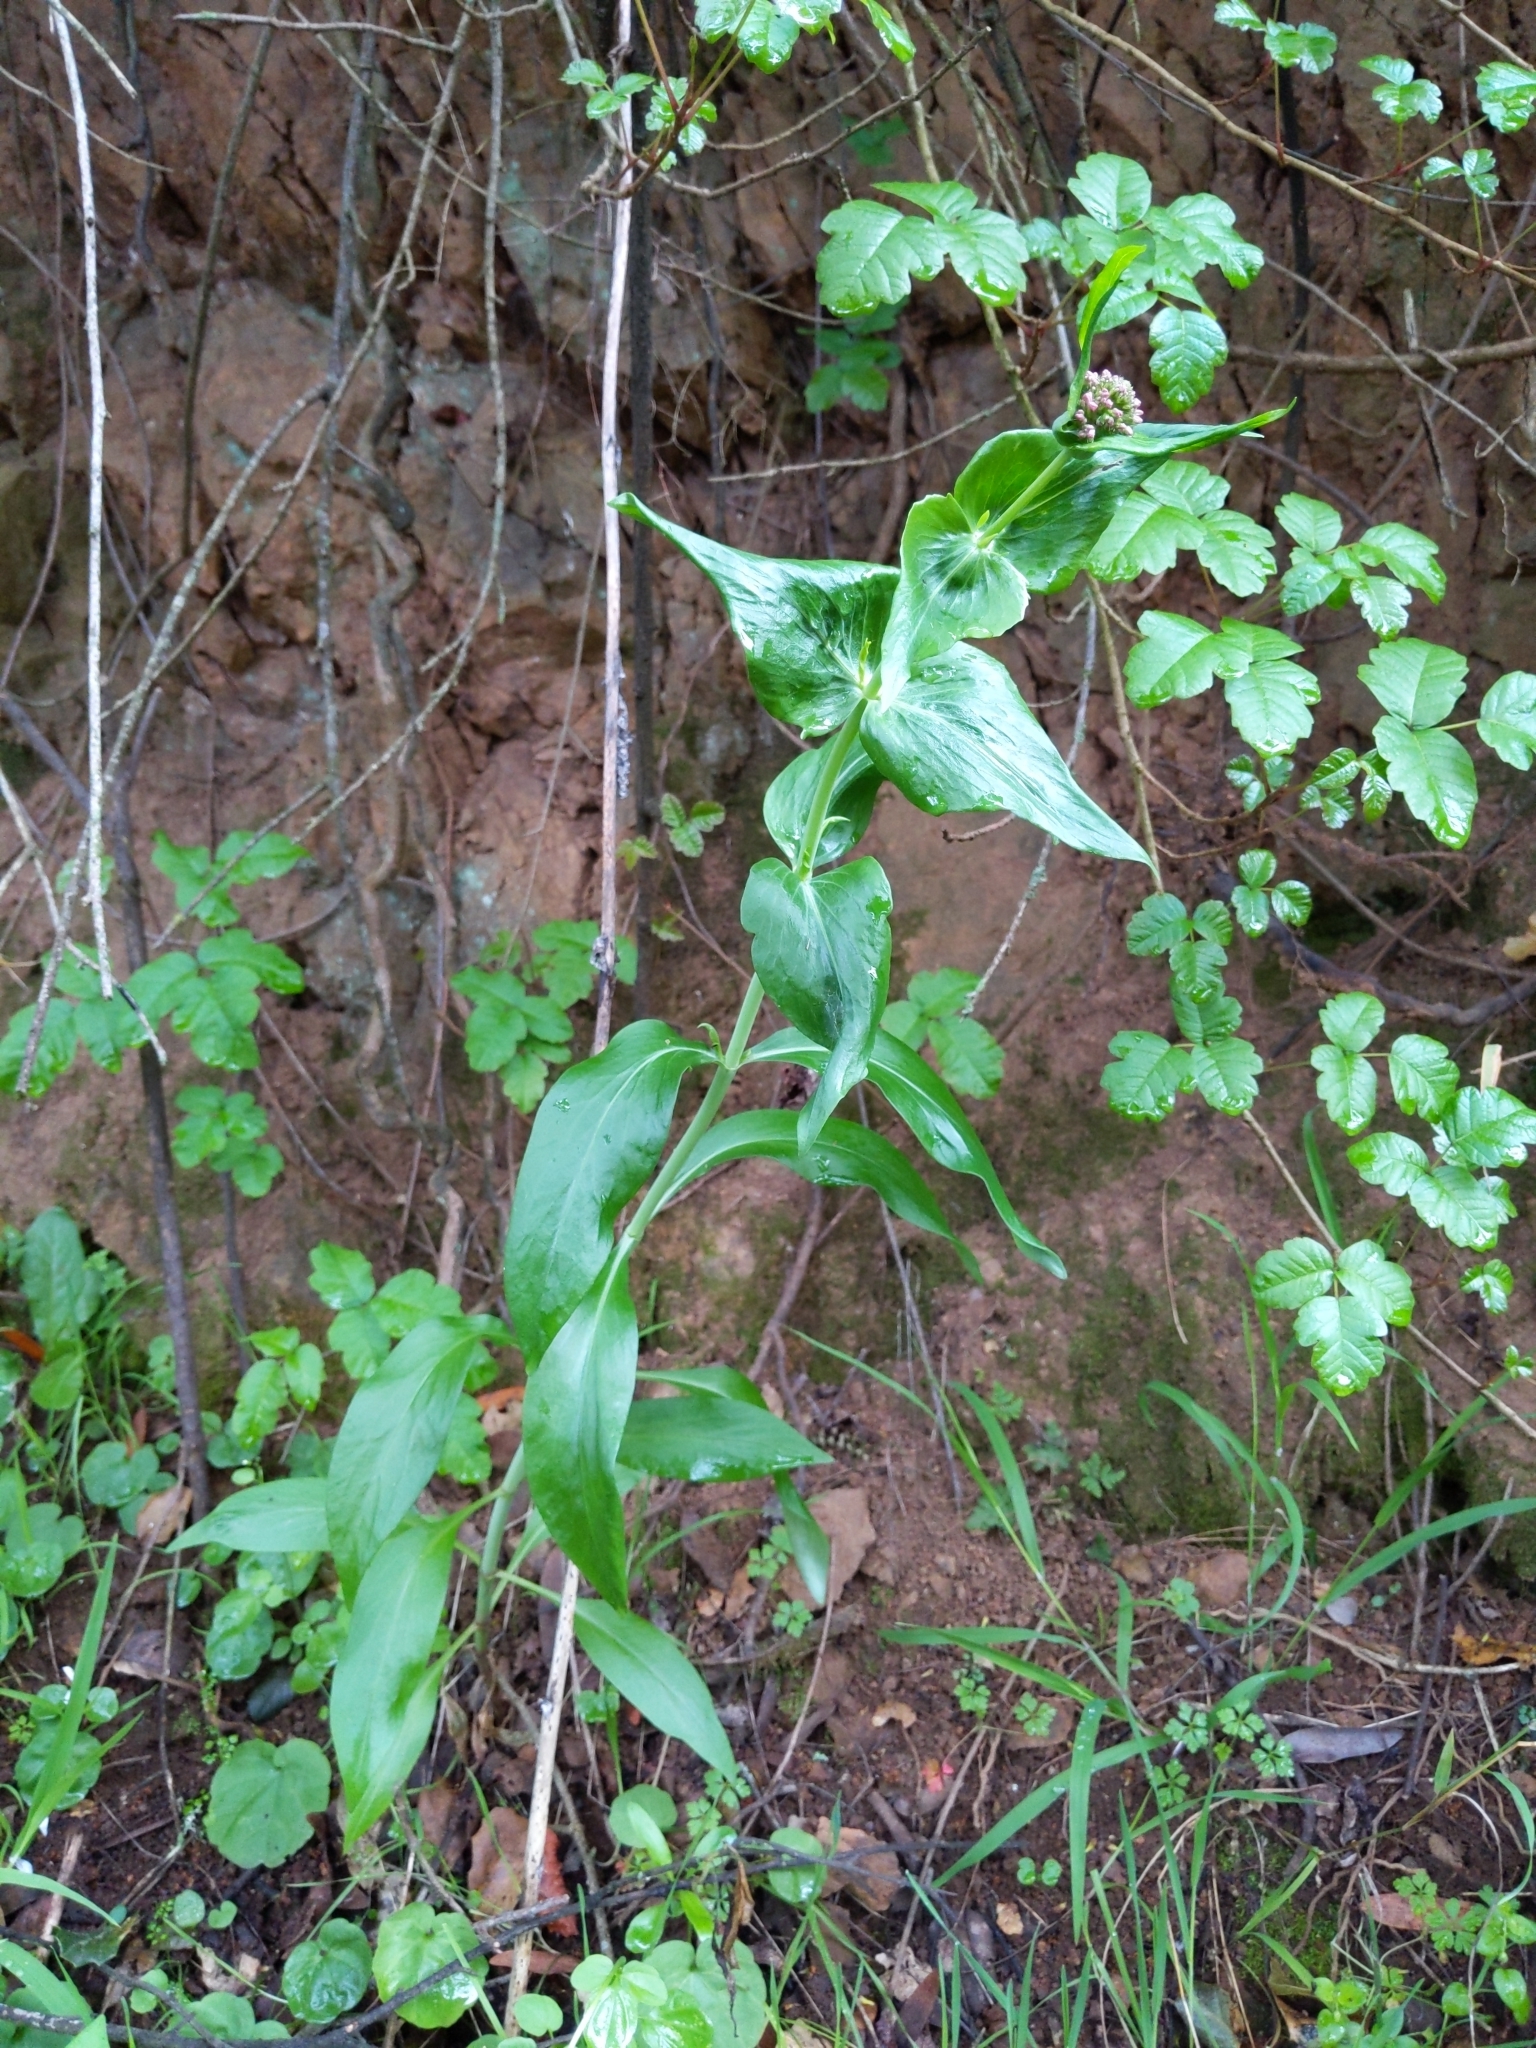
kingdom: Plantae
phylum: Tracheophyta
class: Magnoliopsida
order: Dipsacales
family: Caprifoliaceae
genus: Centranthus
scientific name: Centranthus ruber
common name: Red valerian
